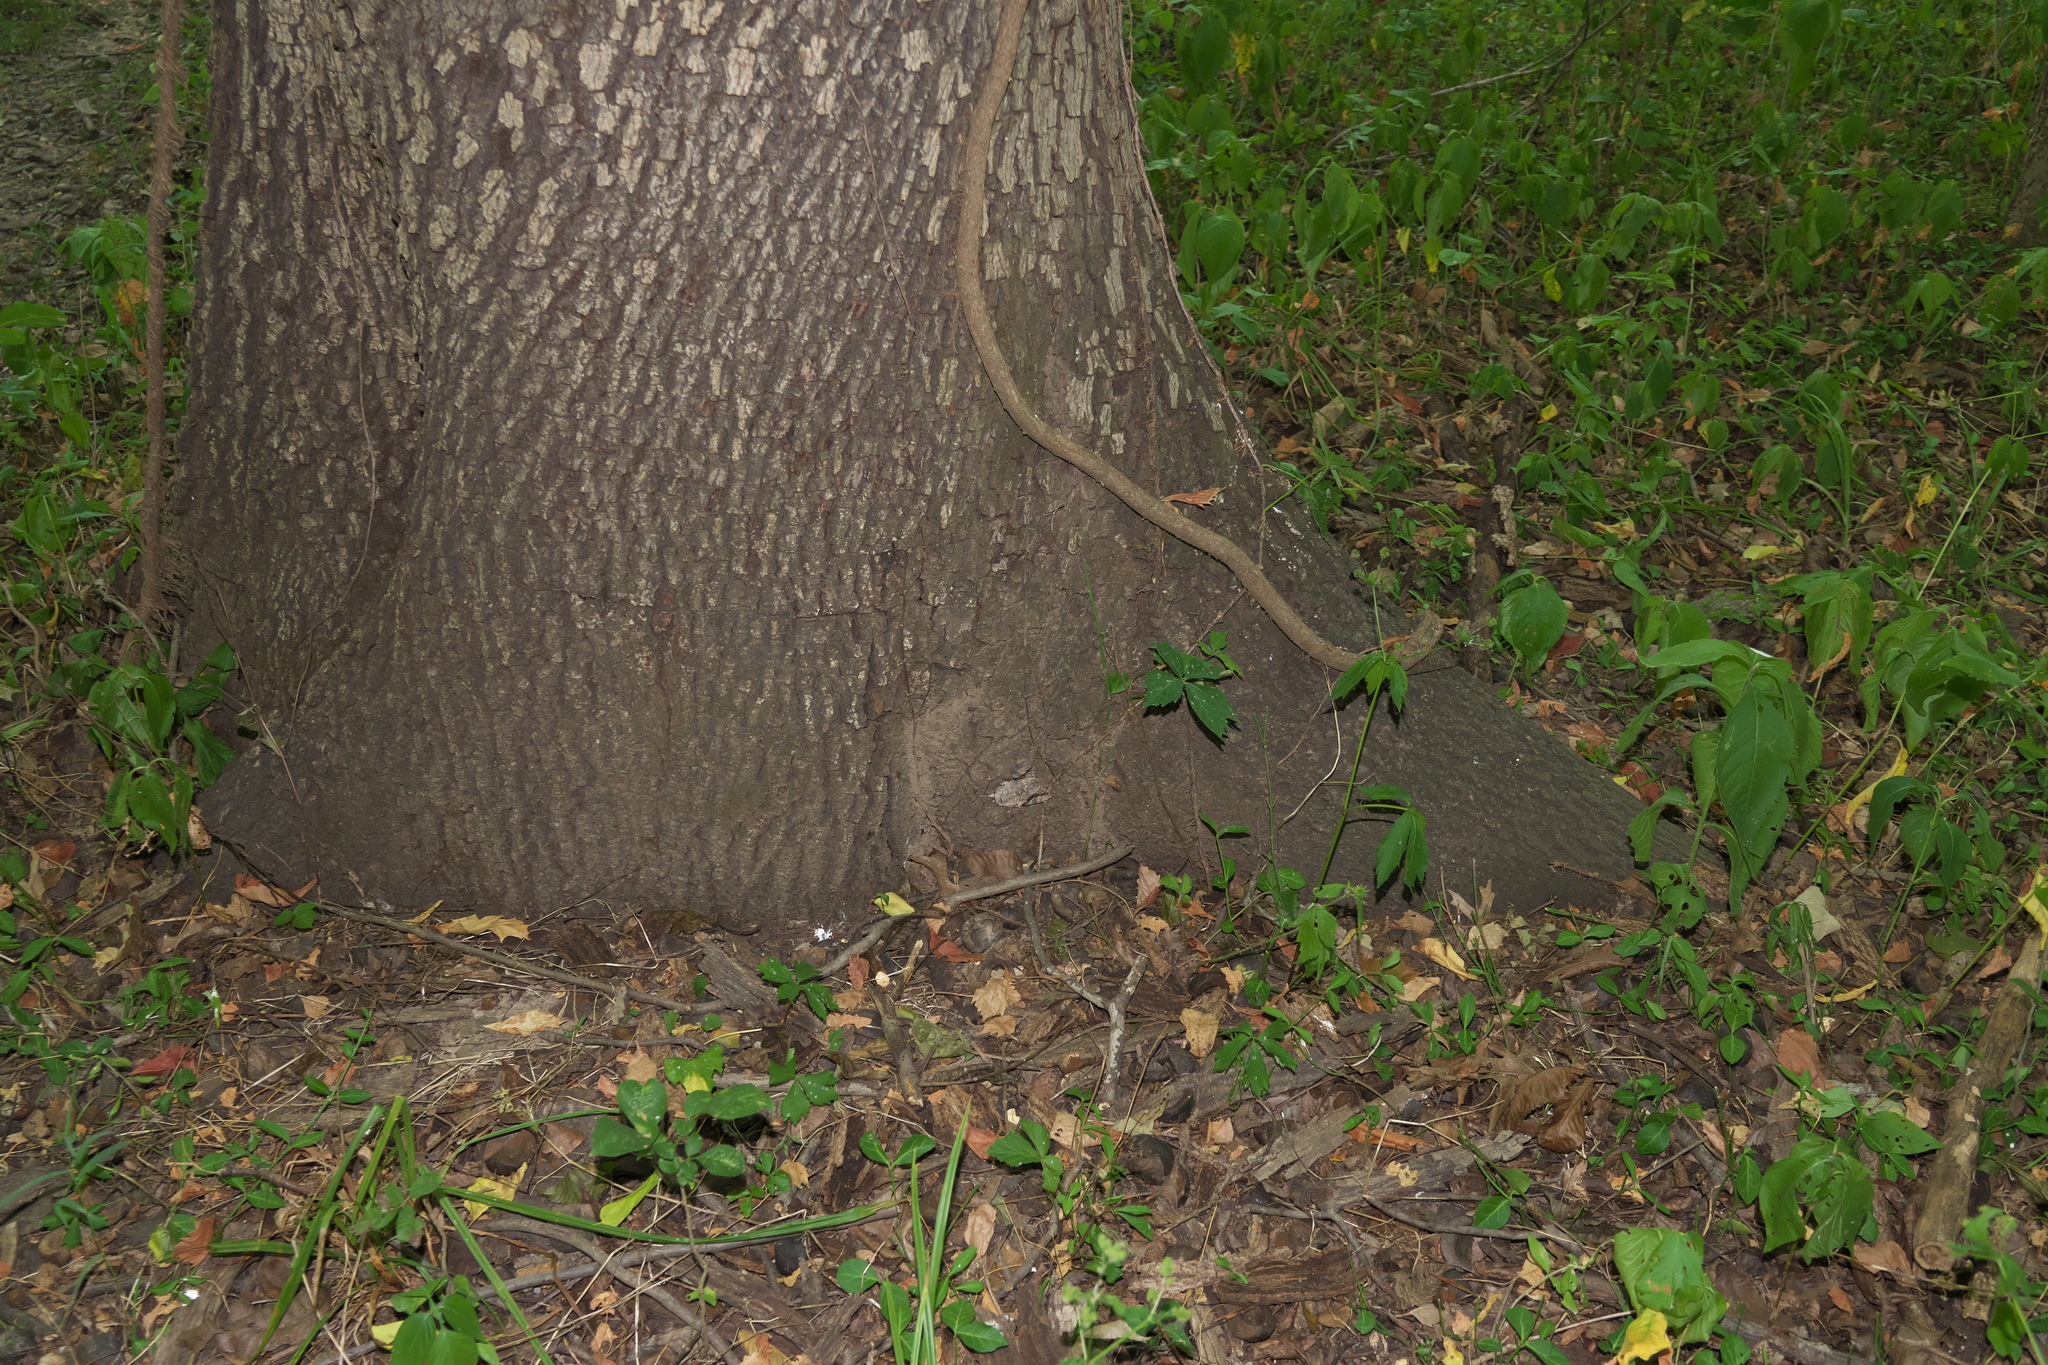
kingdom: Animalia
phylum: Arthropoda
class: Insecta
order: Lepidoptera
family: Erebidae
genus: Catocala
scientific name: Catocala maestosa
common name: Sad underwing
